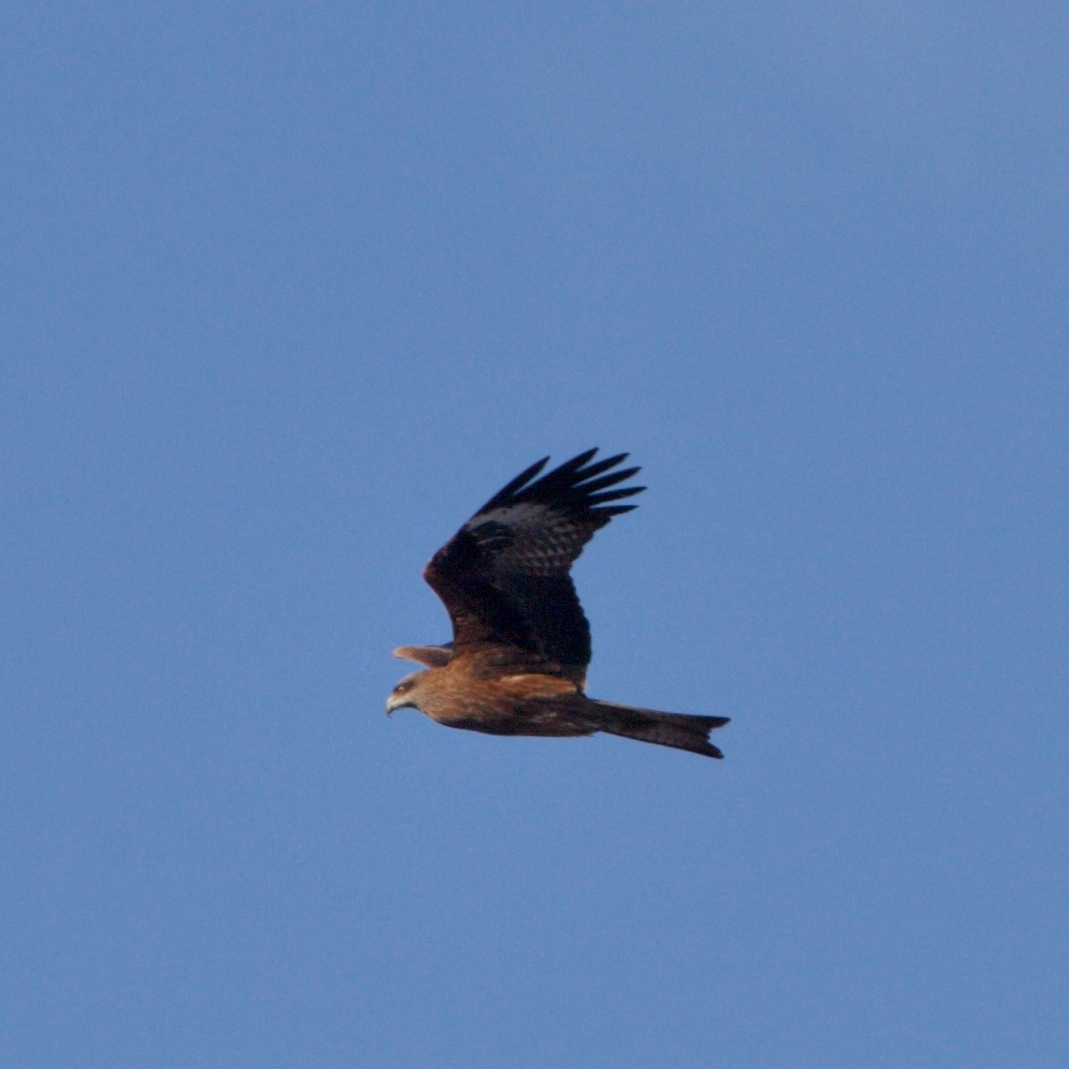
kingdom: Animalia
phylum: Chordata
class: Aves
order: Accipitriformes
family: Accipitridae
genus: Milvus
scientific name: Milvus migrans
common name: Black kite
